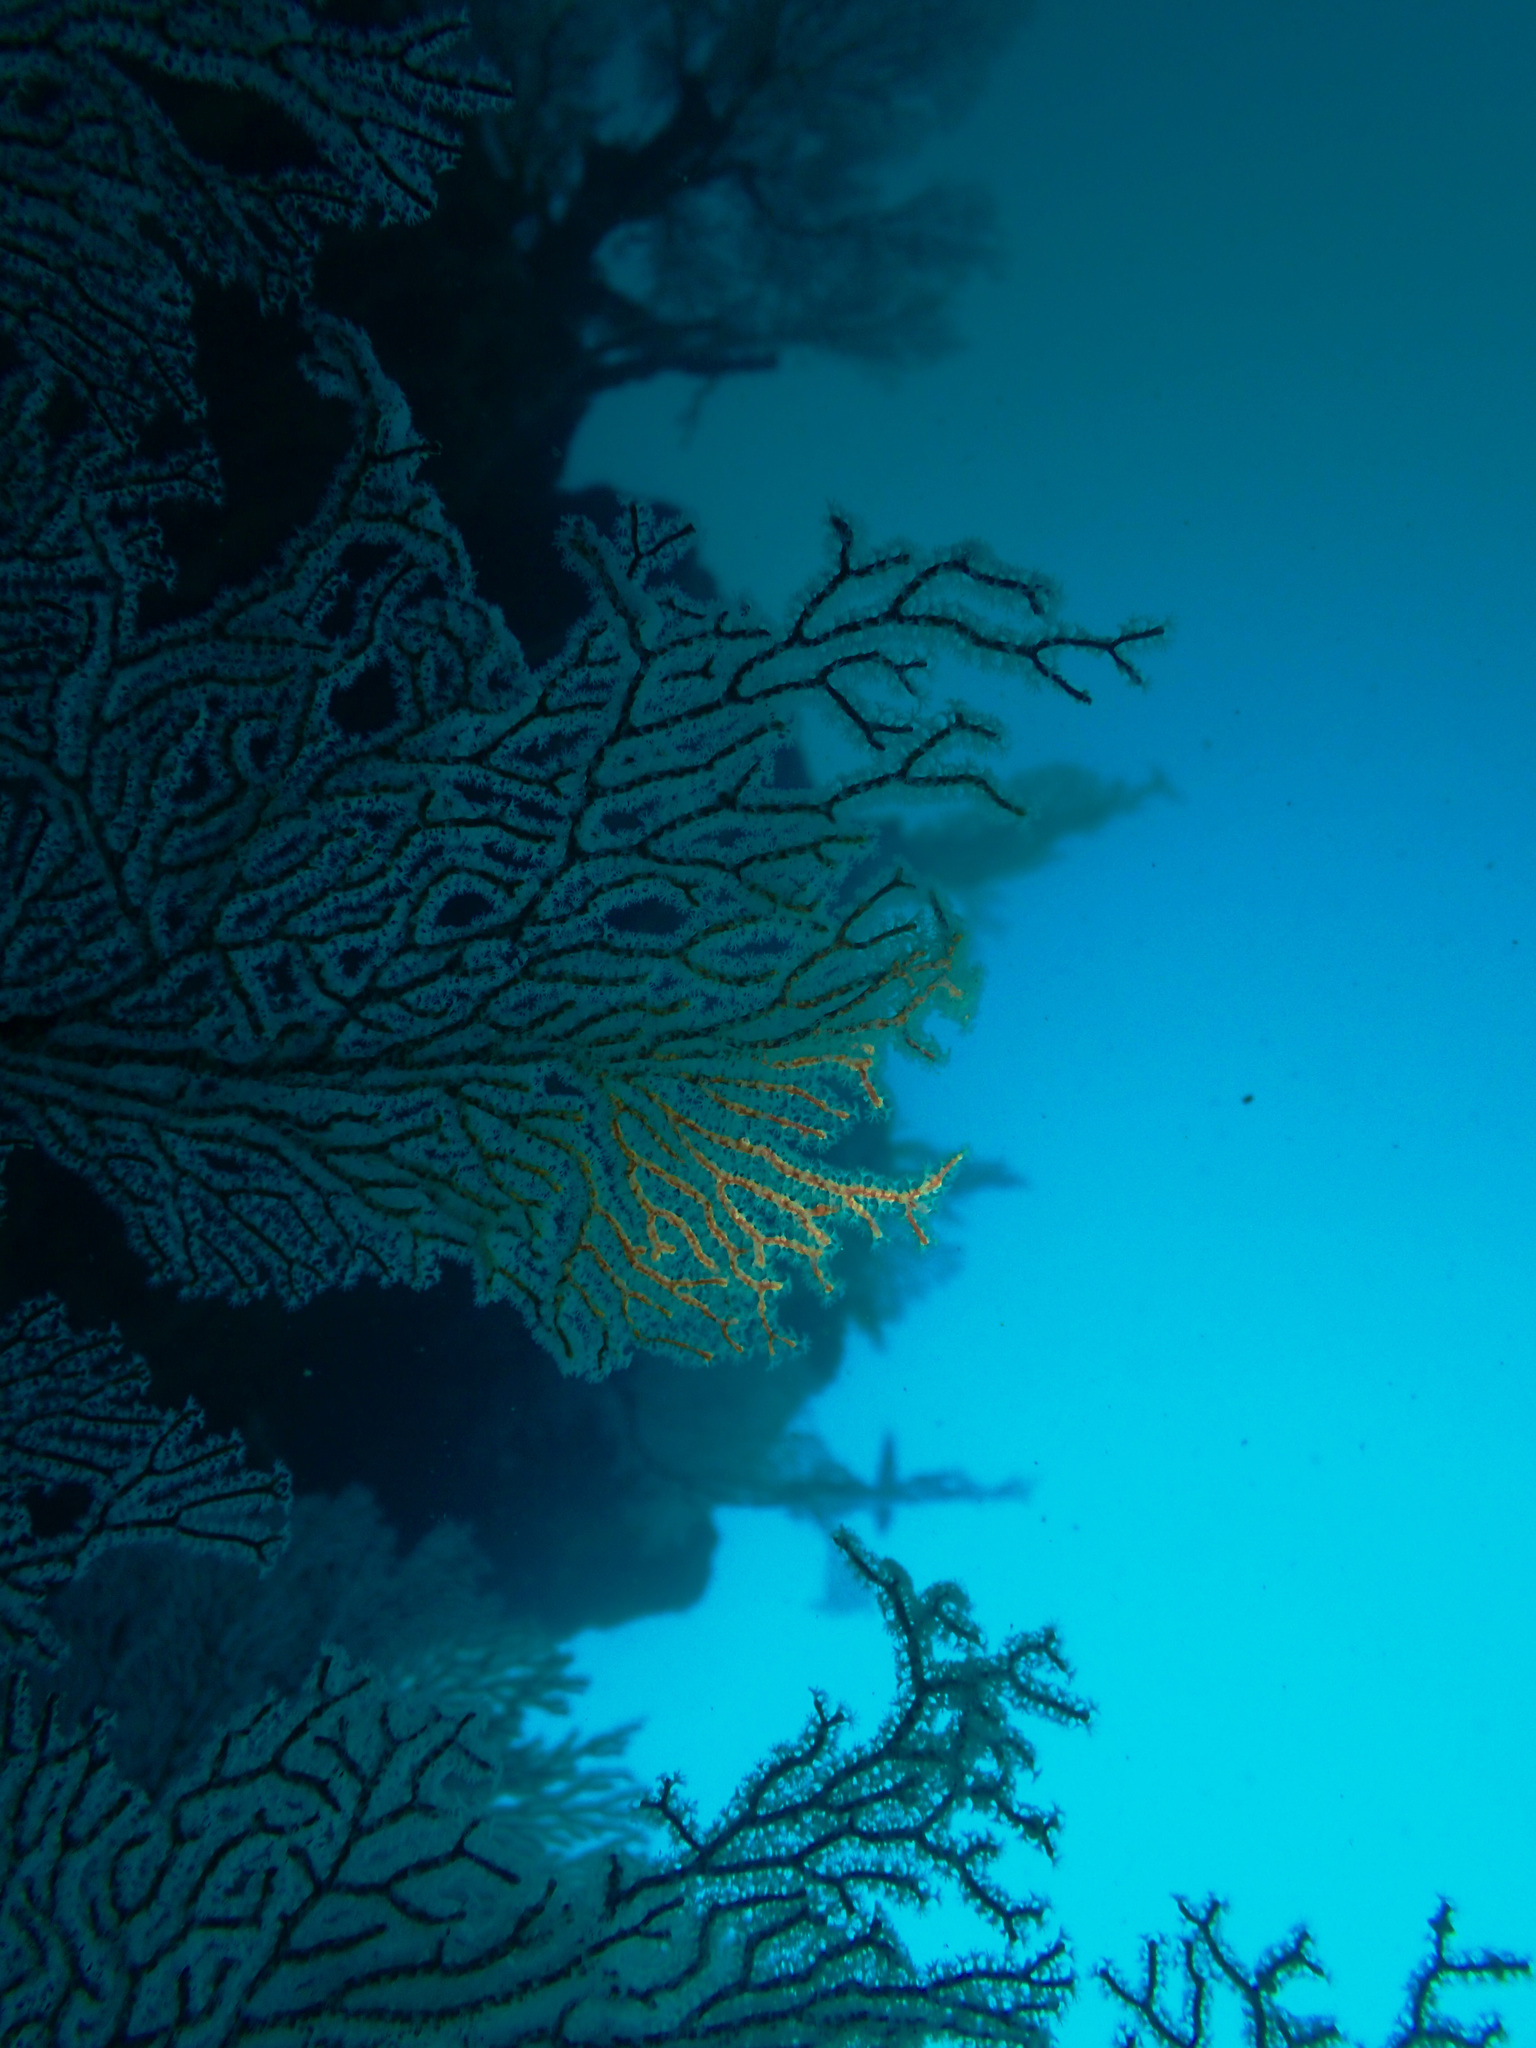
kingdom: Animalia
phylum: Cnidaria
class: Anthozoa
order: Malacalcyonacea
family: Melithaeidae
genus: Melithaea
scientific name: Melithaea ochracea
